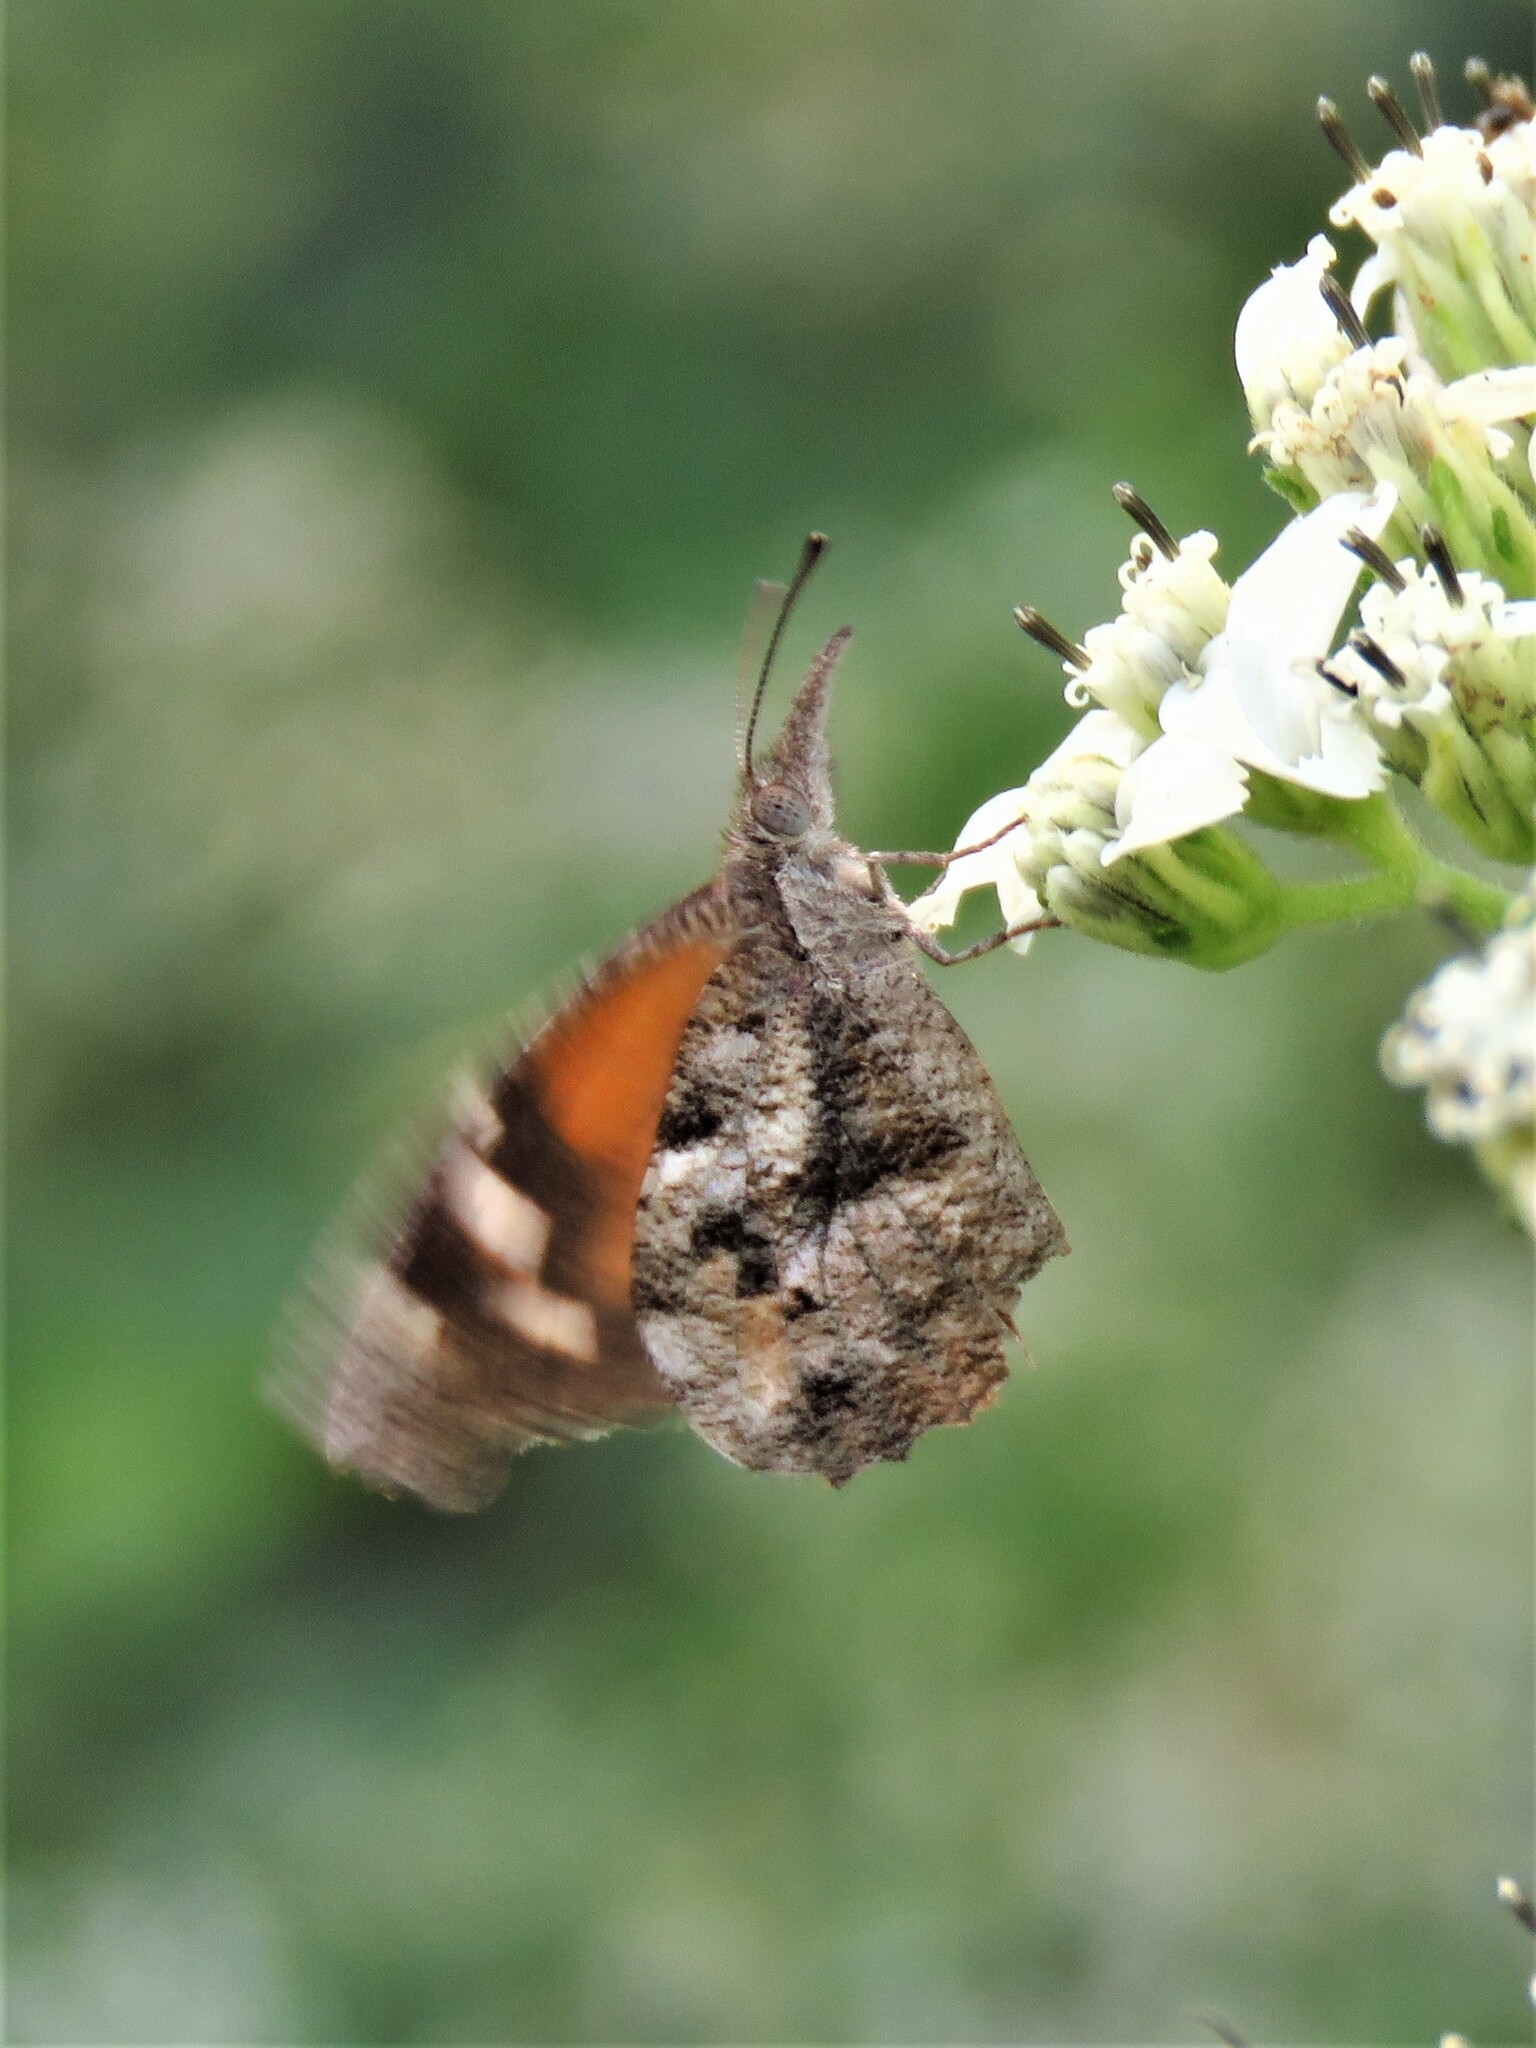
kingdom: Animalia
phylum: Arthropoda
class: Insecta
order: Lepidoptera
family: Nymphalidae
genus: Libytheana
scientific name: Libytheana carinenta
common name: American snout
